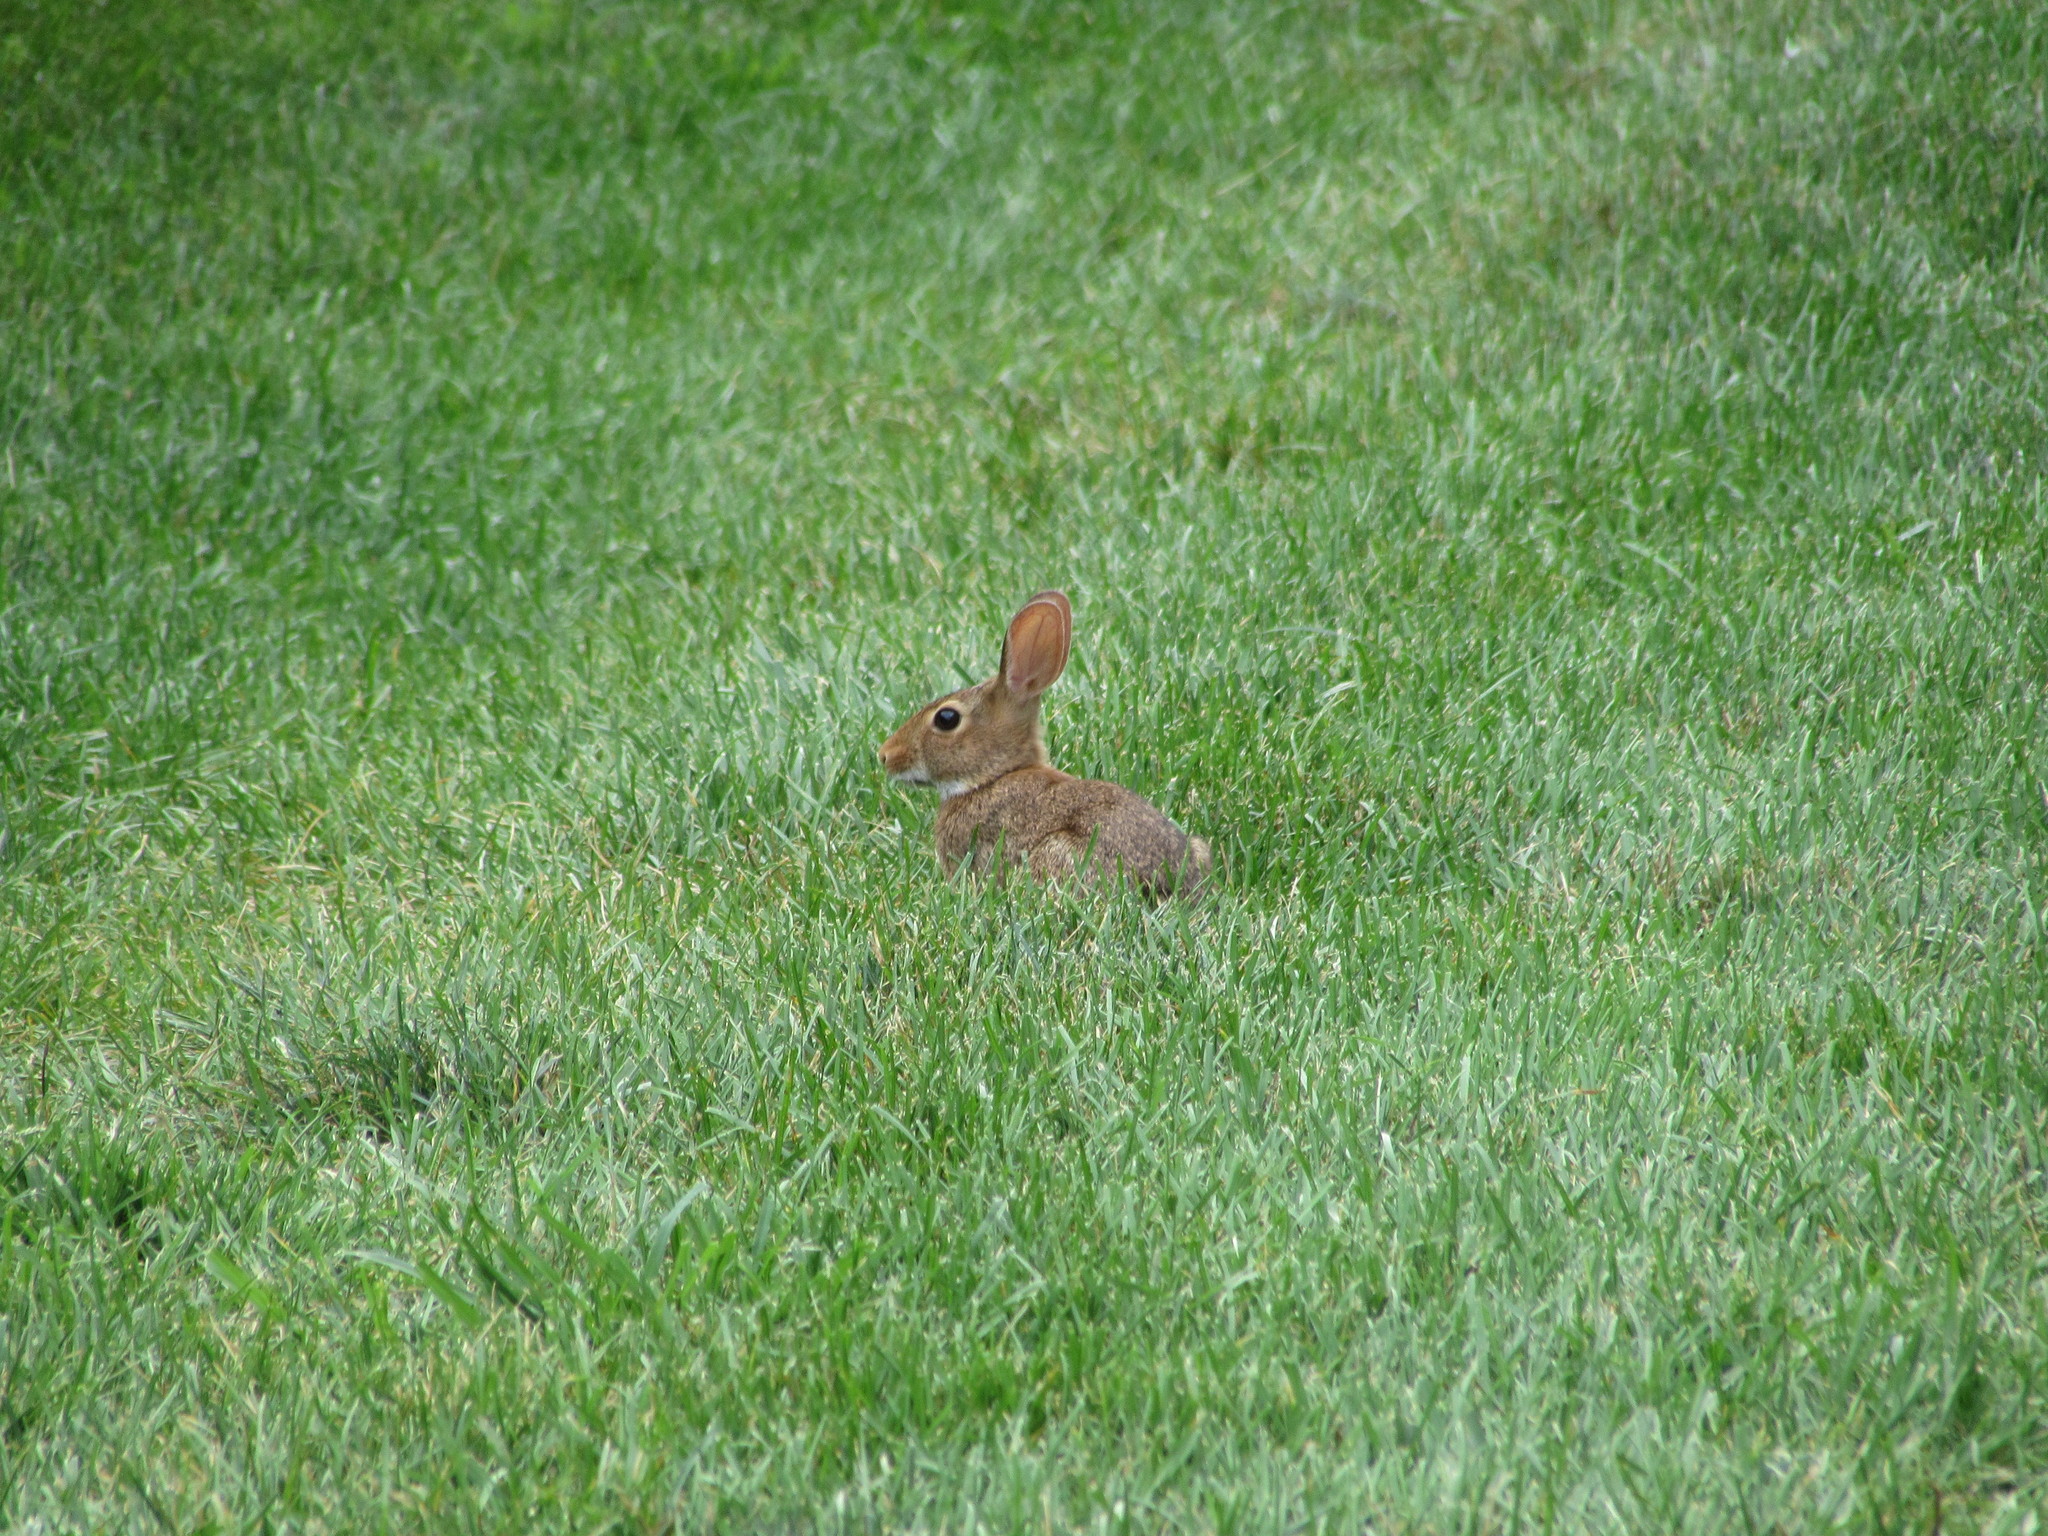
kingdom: Animalia
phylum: Chordata
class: Mammalia
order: Lagomorpha
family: Leporidae
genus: Sylvilagus
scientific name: Sylvilagus floridanus
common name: Eastern cottontail
